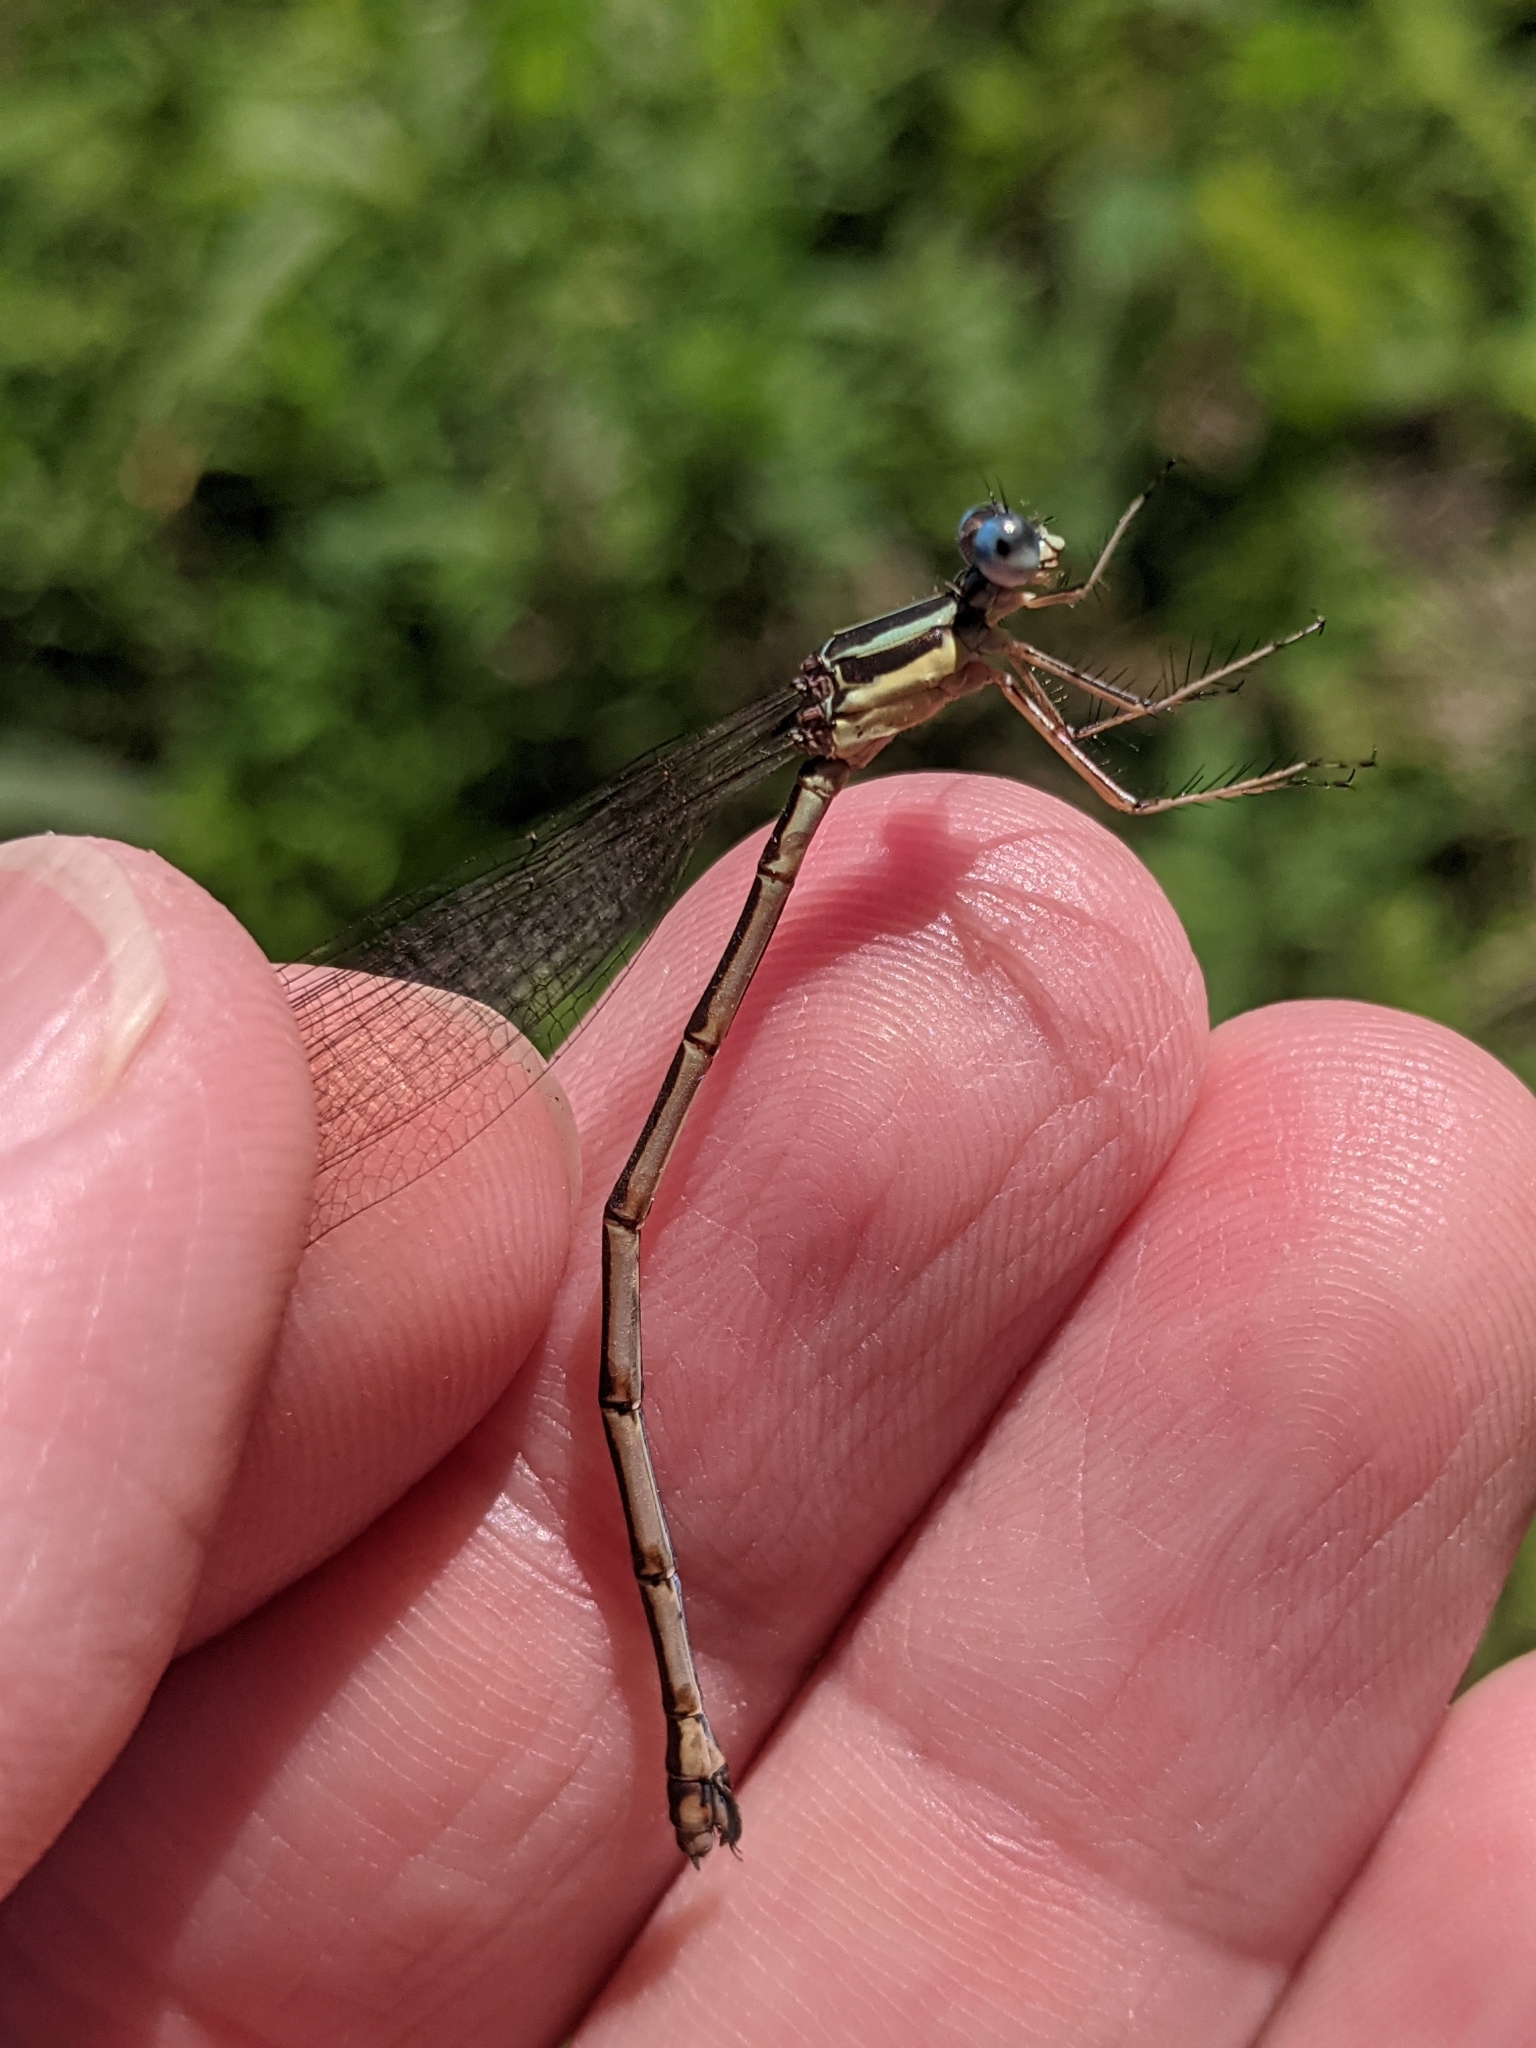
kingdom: Animalia
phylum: Arthropoda
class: Insecta
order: Odonata
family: Lestidae
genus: Lestes
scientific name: Lestes dryas
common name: Scarce emerald damselfly
